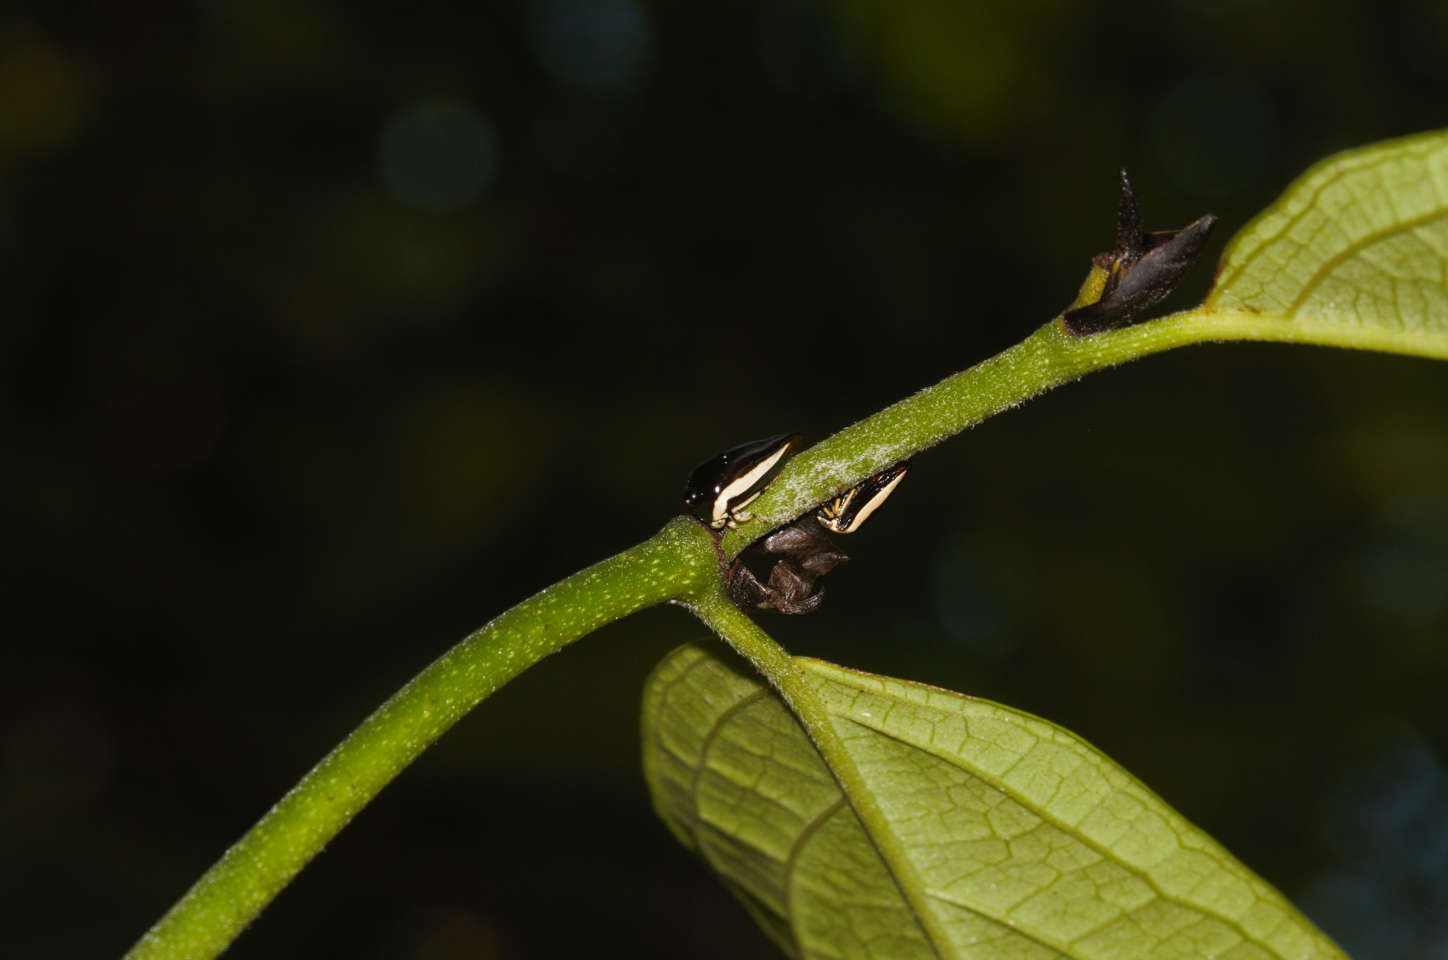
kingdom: Animalia
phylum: Arthropoda
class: Insecta
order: Hemiptera
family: Membracidae
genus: Darnis
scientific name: Darnis lateralis
